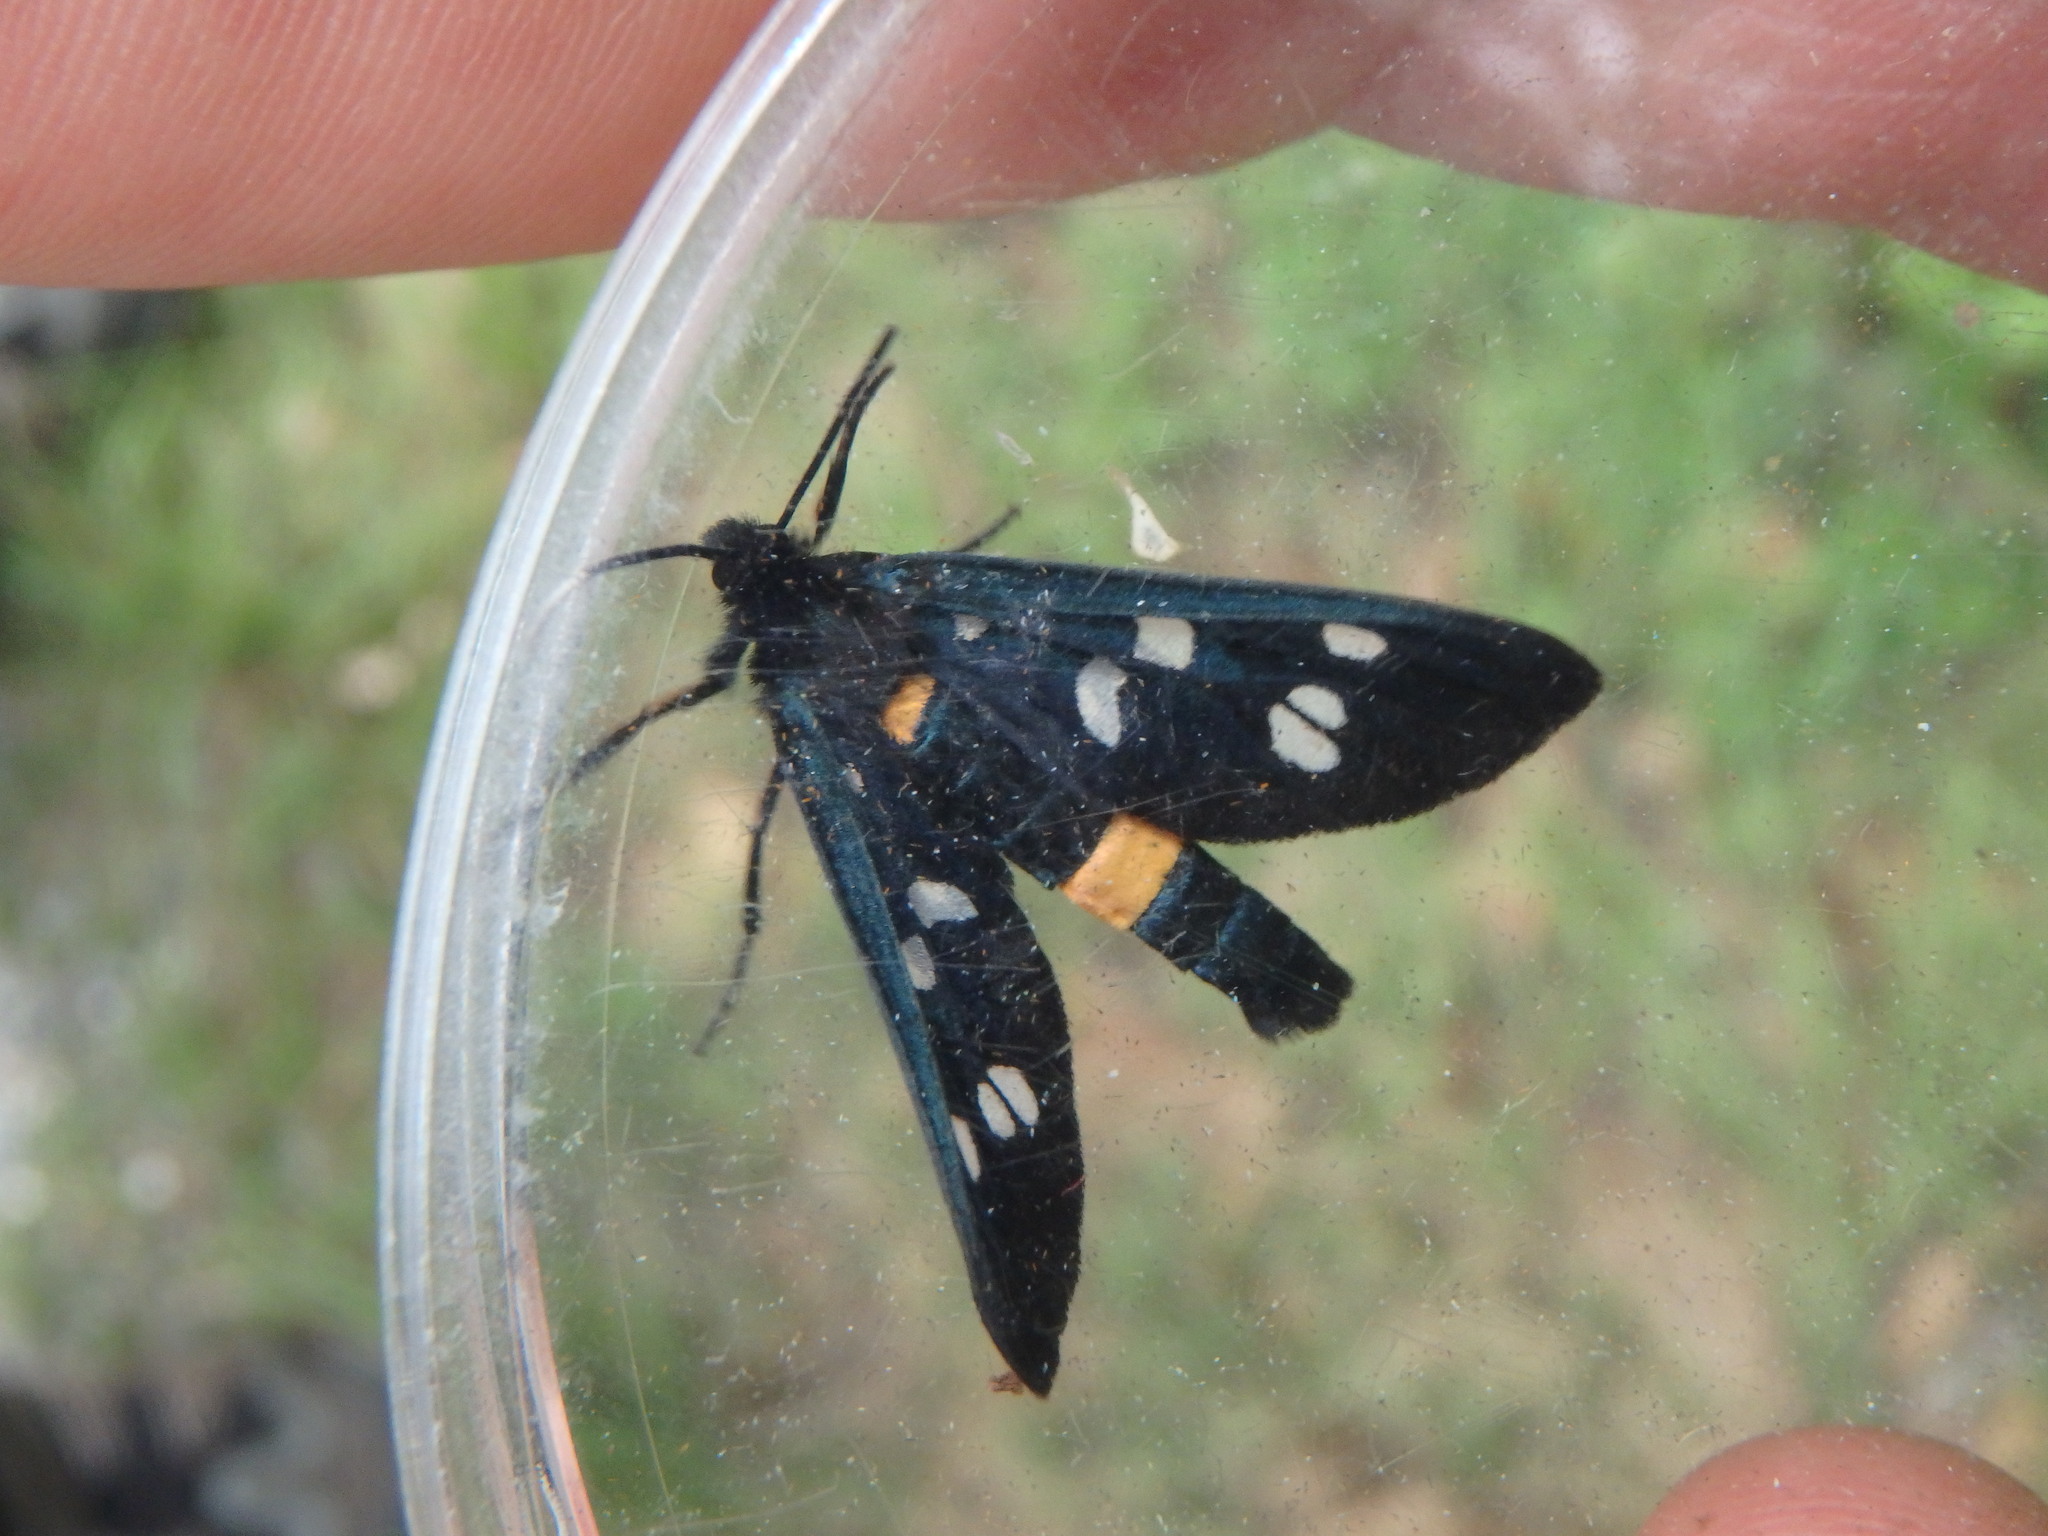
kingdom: Animalia
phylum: Arthropoda
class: Insecta
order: Lepidoptera
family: Erebidae
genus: Amata
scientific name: Amata phegea
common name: Nine-spotted
